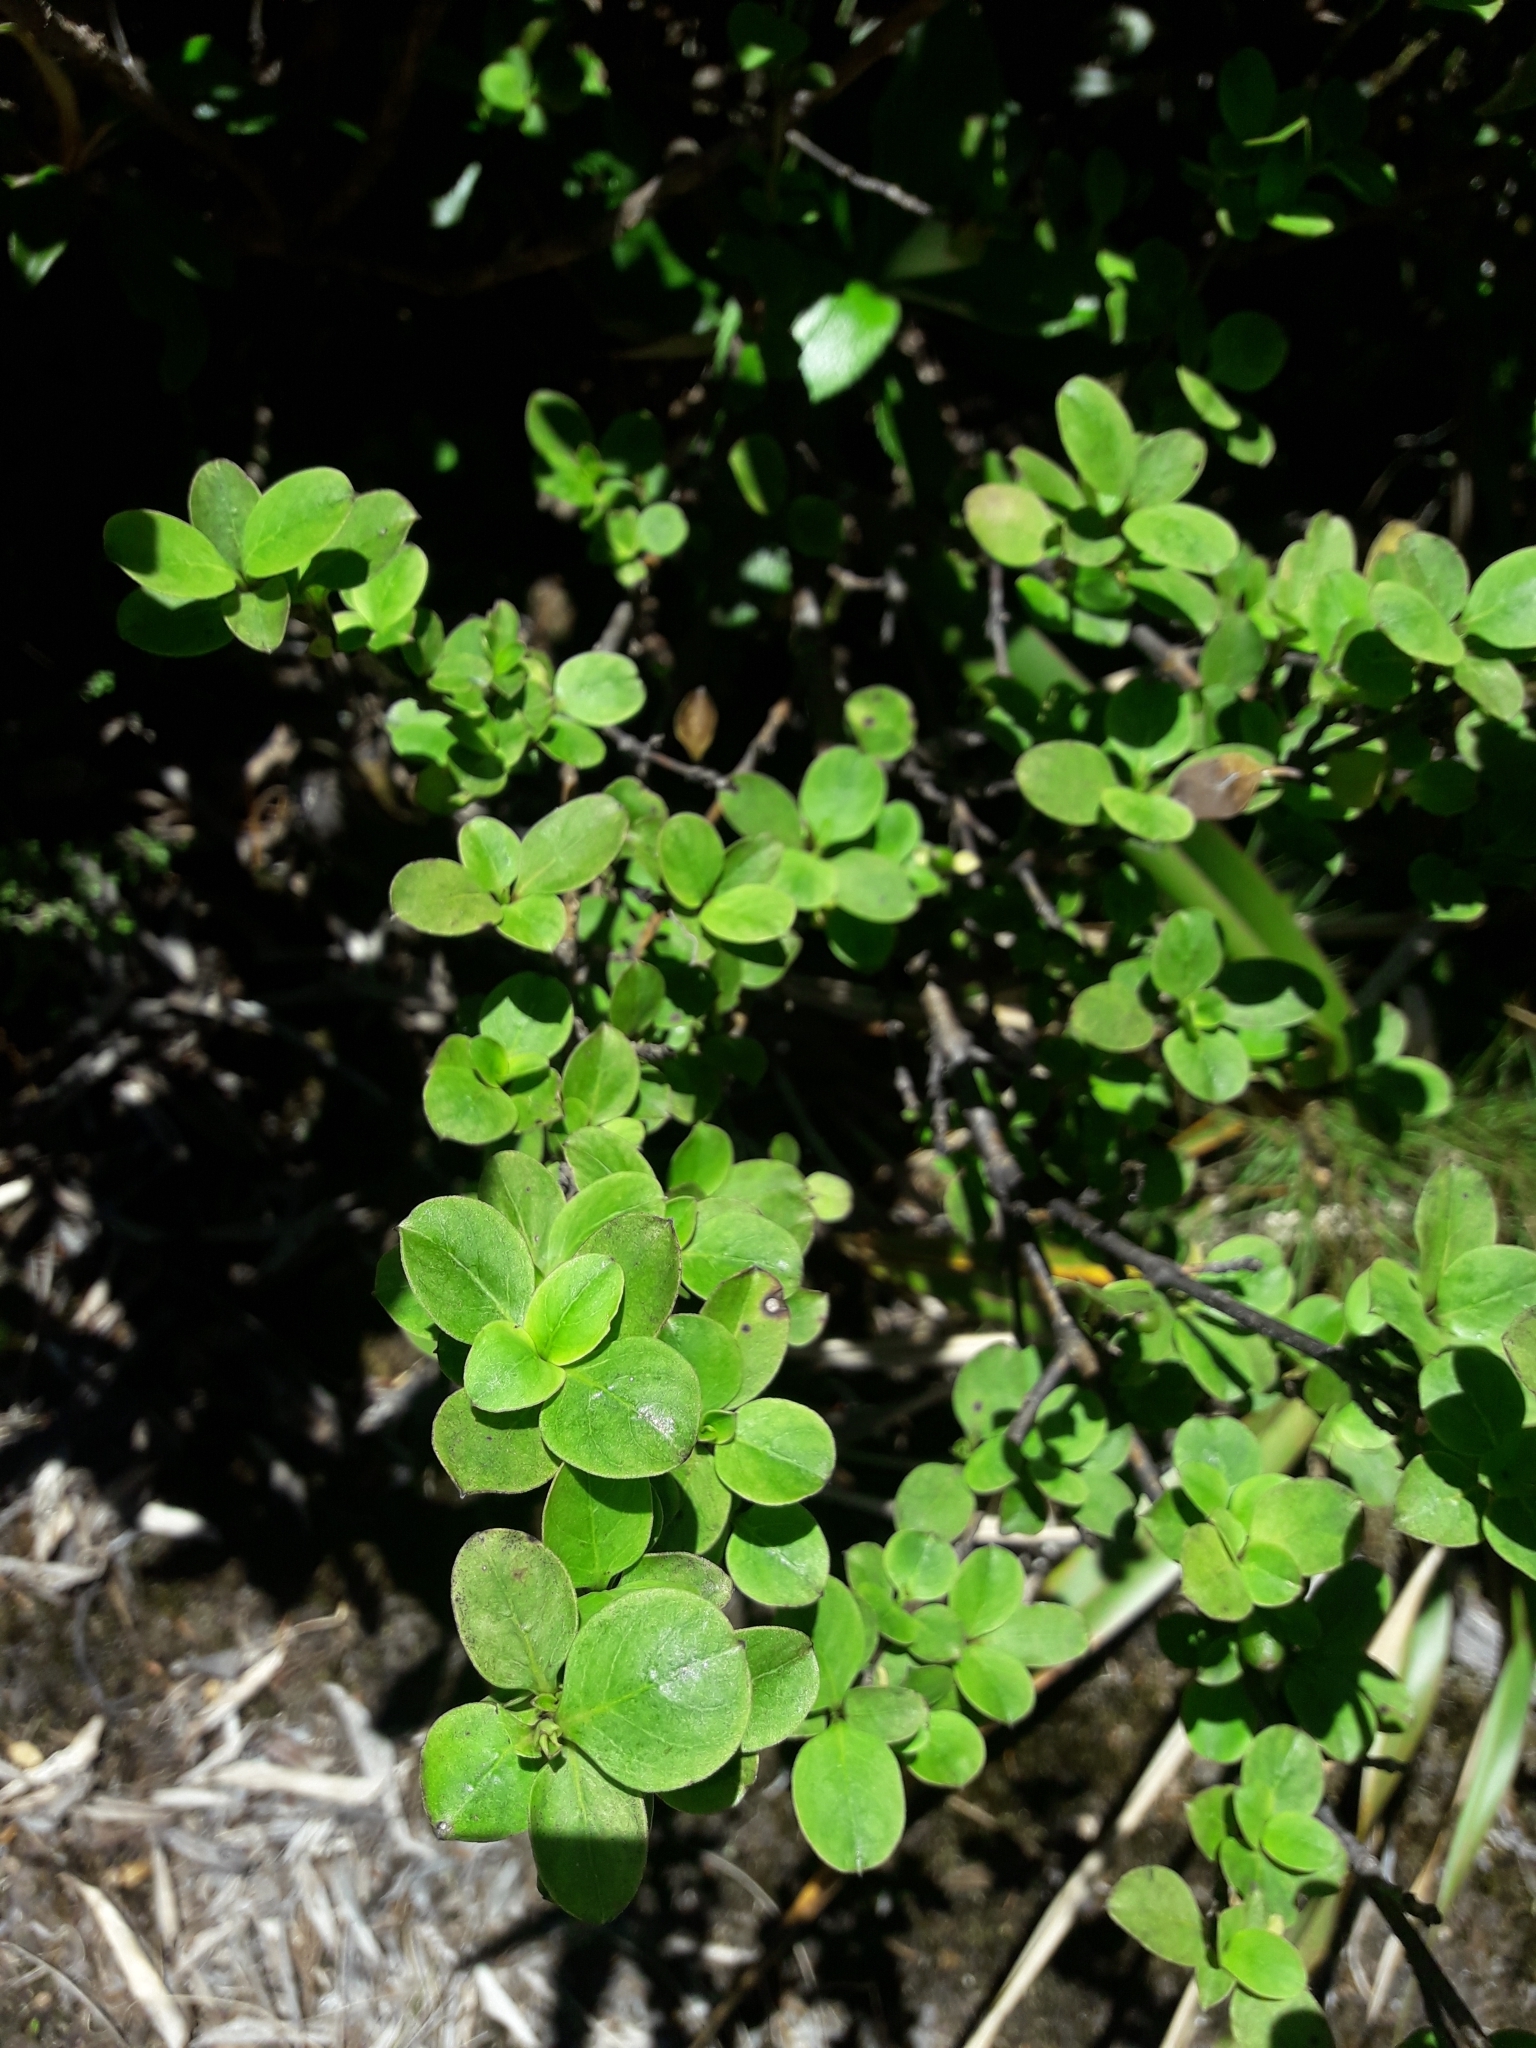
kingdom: Plantae
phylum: Tracheophyta
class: Magnoliopsida
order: Gentianales
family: Rubiaceae
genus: Coprosma
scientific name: Coprosma foetidissima
